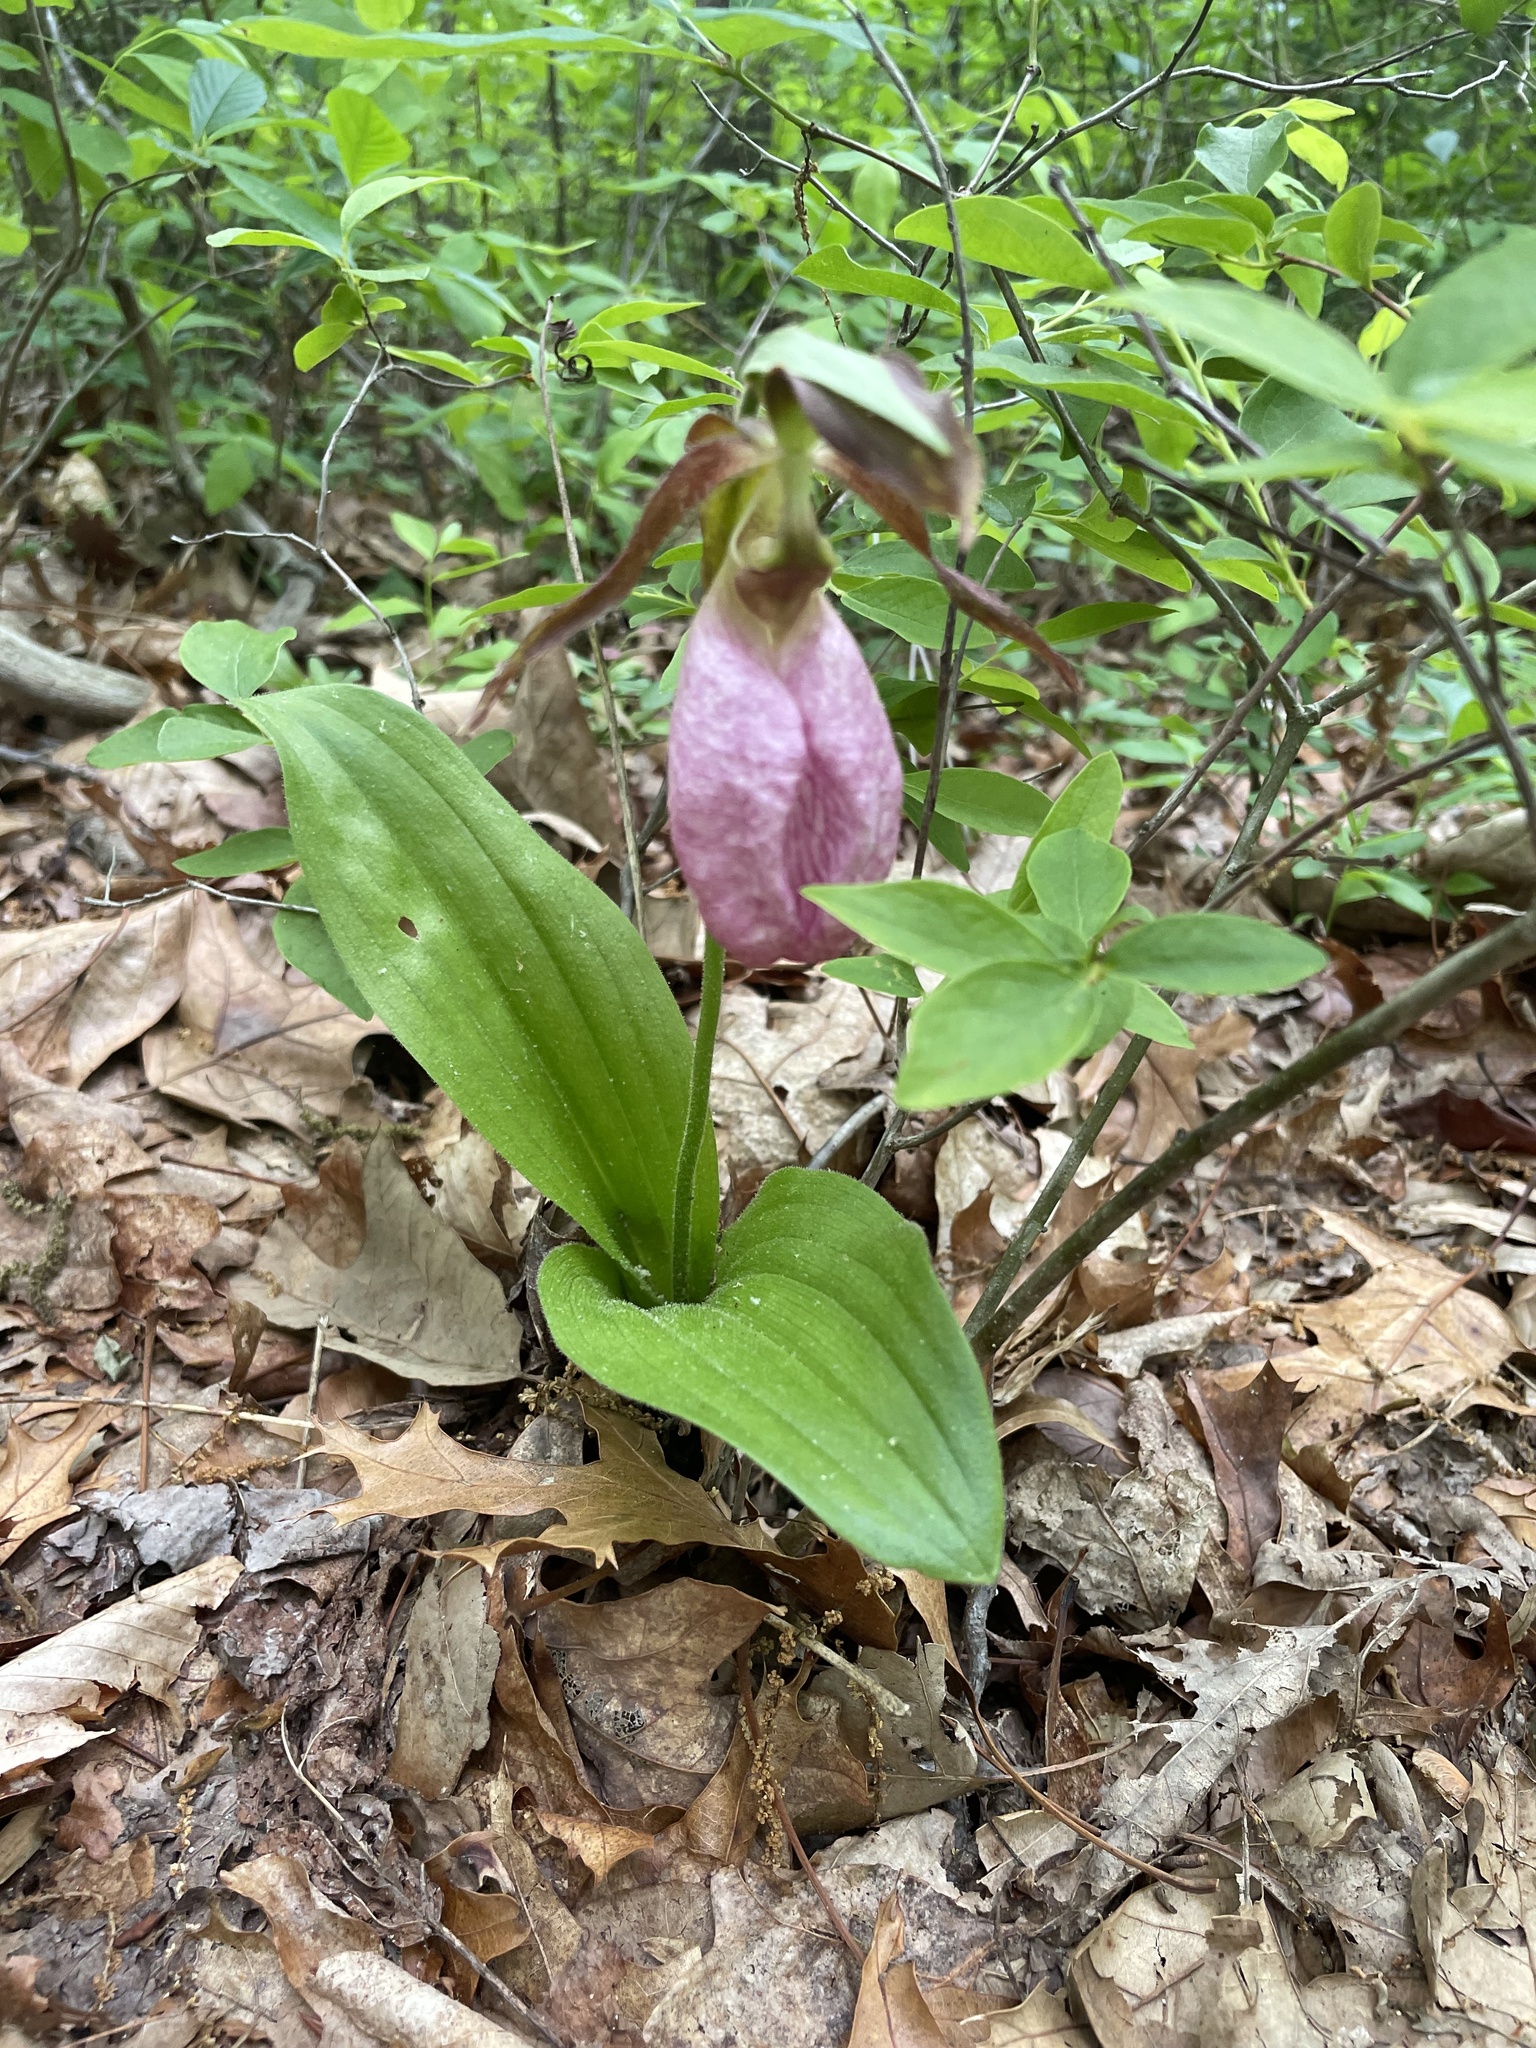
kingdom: Plantae
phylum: Tracheophyta
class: Liliopsida
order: Asparagales
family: Orchidaceae
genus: Cypripedium
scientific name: Cypripedium acaule
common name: Pink lady's-slipper
